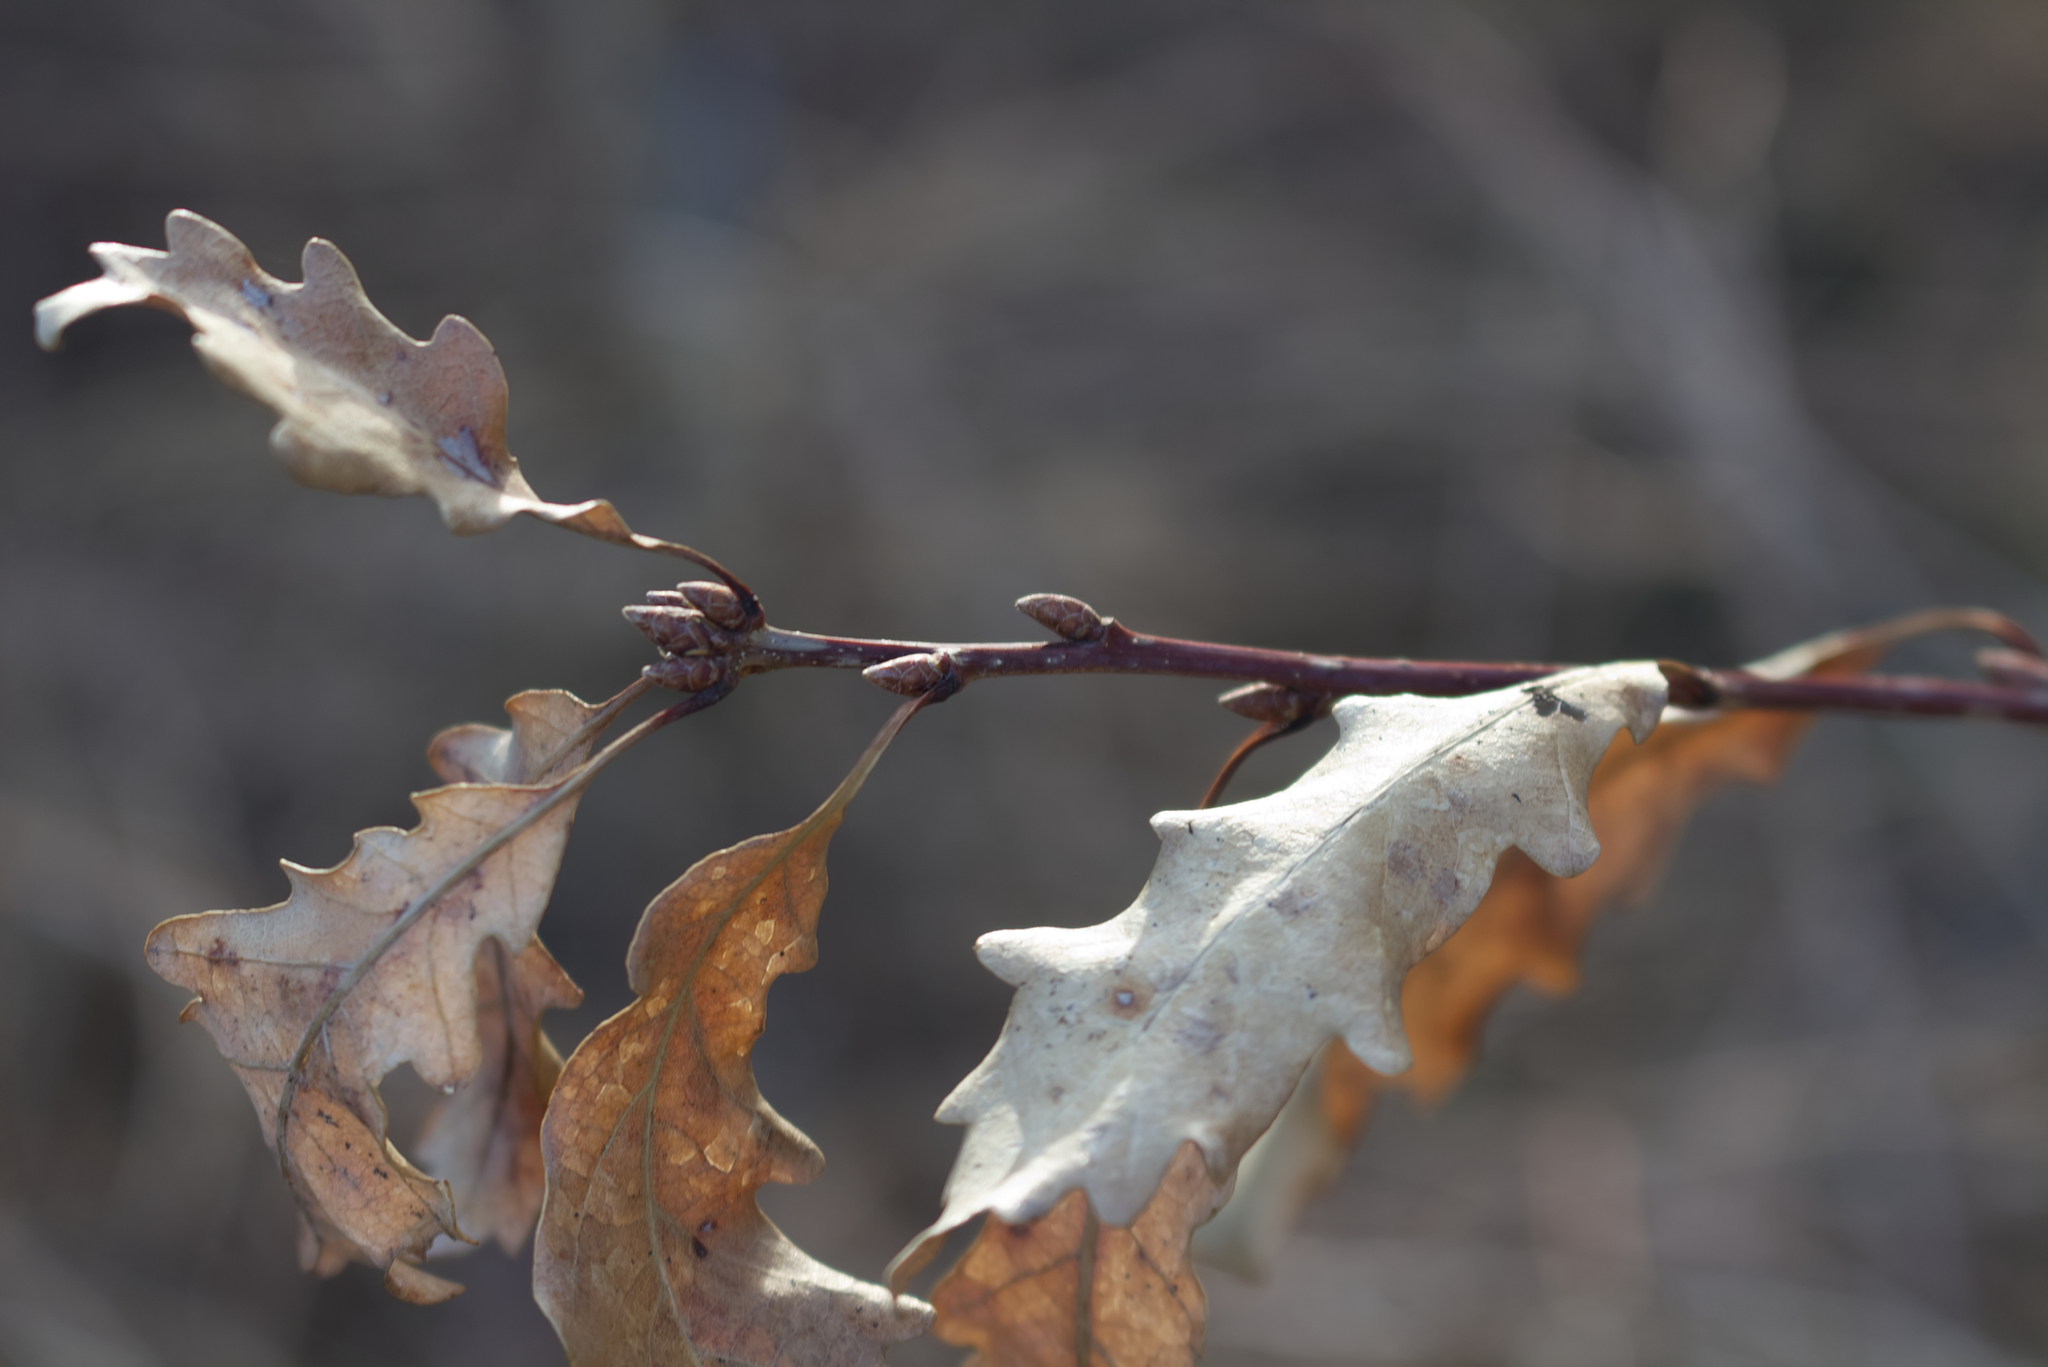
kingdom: Plantae
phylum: Tracheophyta
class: Magnoliopsida
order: Fagales
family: Fagaceae
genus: Quercus
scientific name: Quercus petraea
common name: Sessile oak
